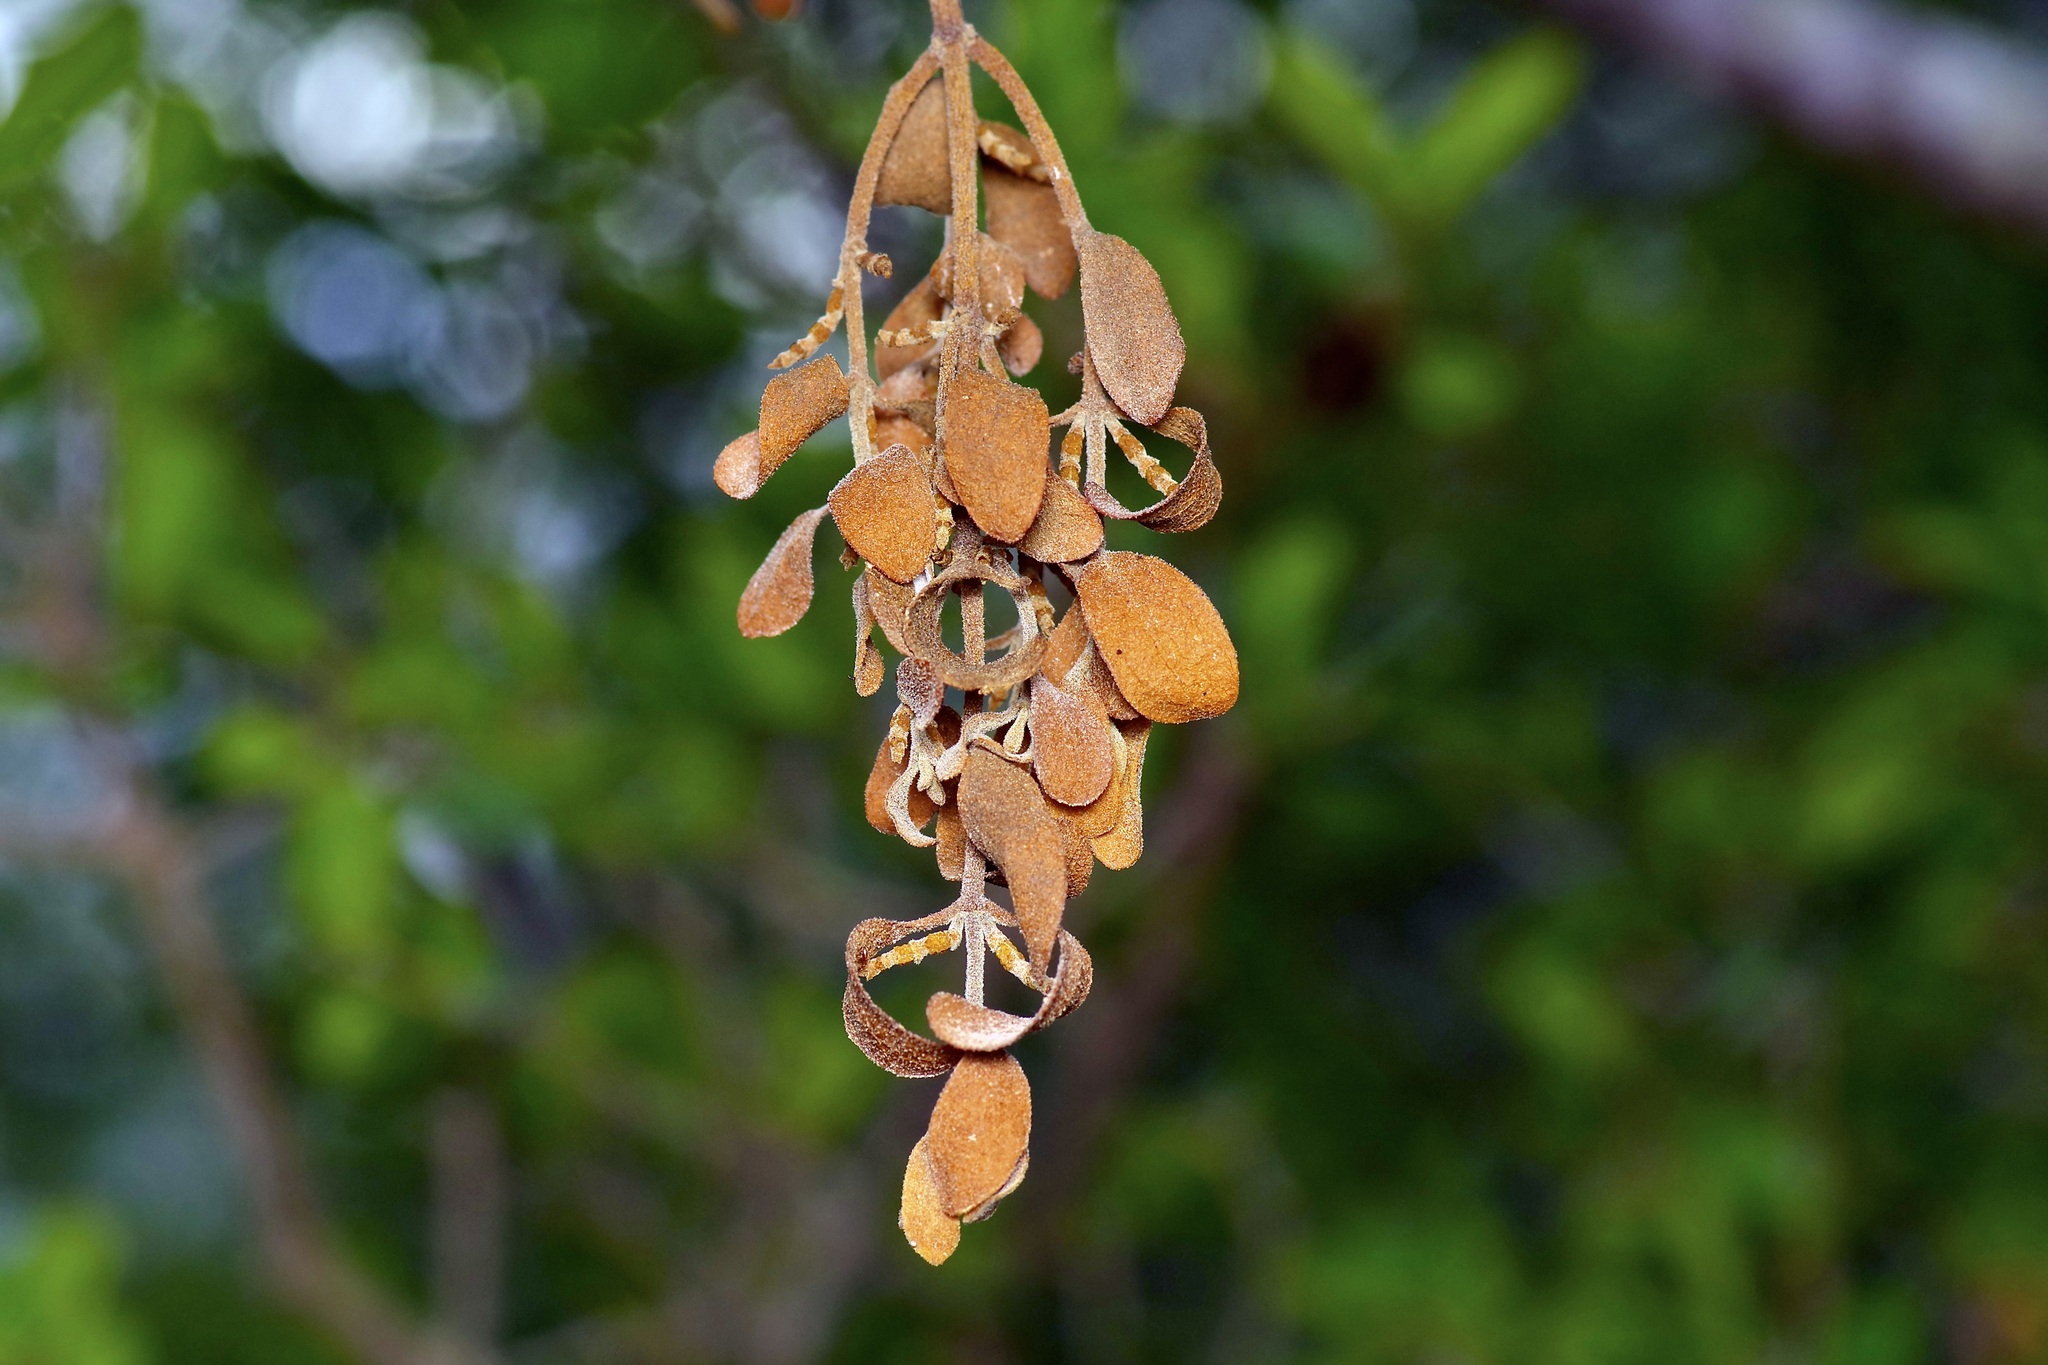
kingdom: Plantae
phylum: Tracheophyta
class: Magnoliopsida
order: Santalales
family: Viscaceae
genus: Phoradendron
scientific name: Phoradendron leucarpum
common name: Pacific mistletoe
